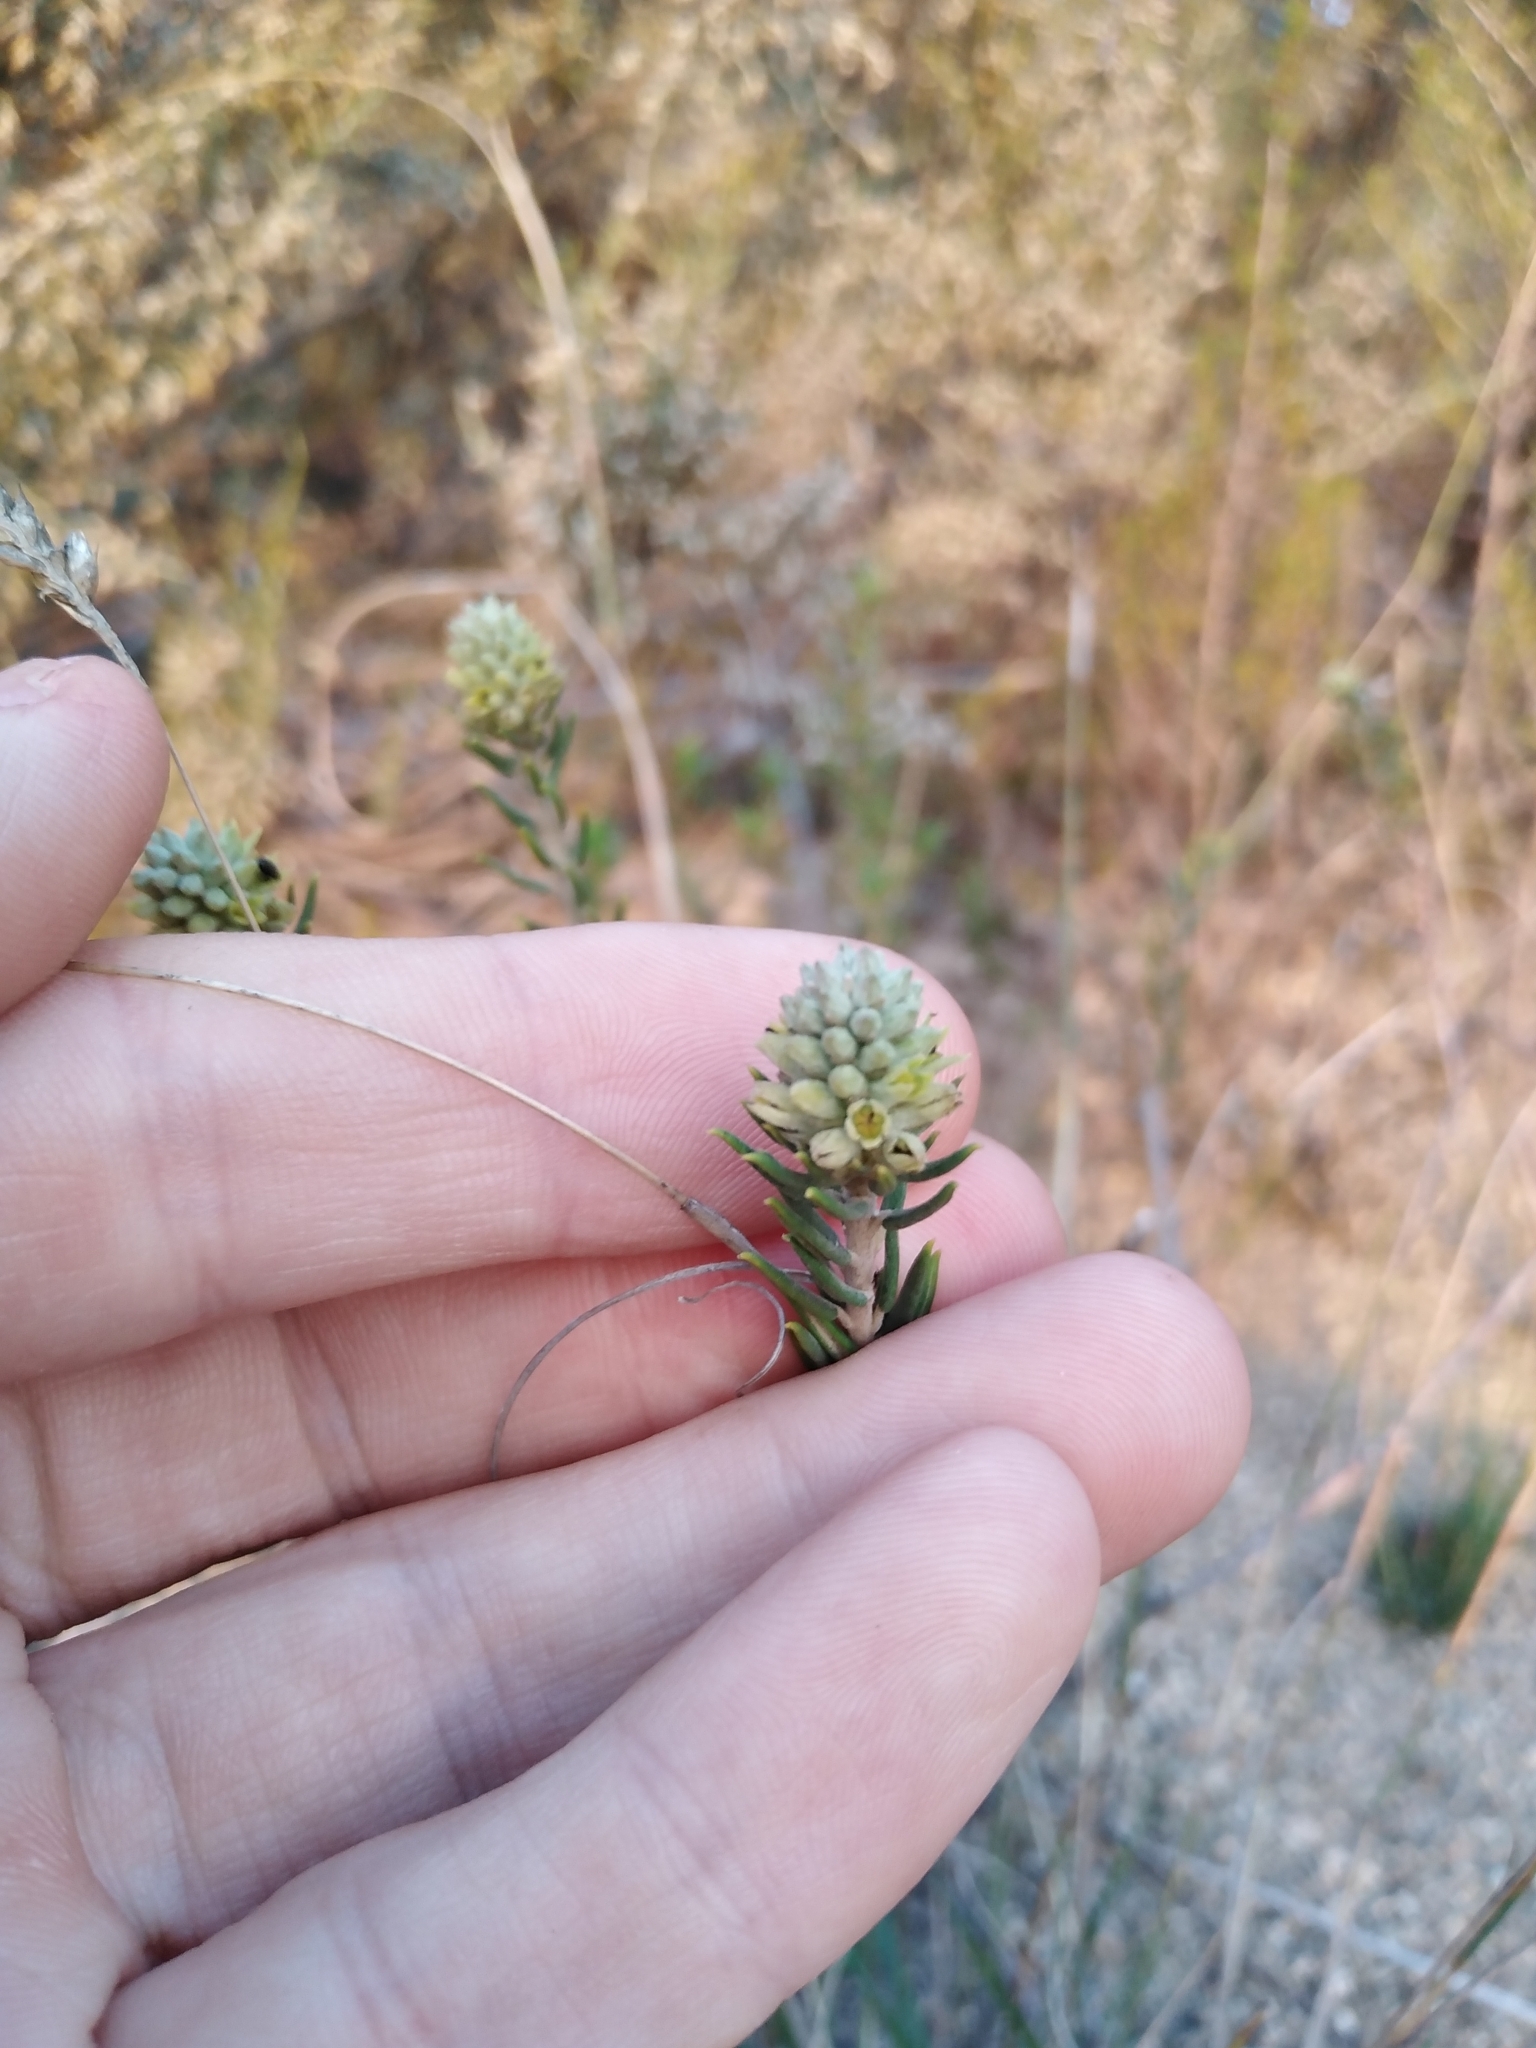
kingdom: Plantae
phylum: Tracheophyta
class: Magnoliopsida
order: Rosales
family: Rhamnaceae
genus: Phylica
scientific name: Phylica imberbis
